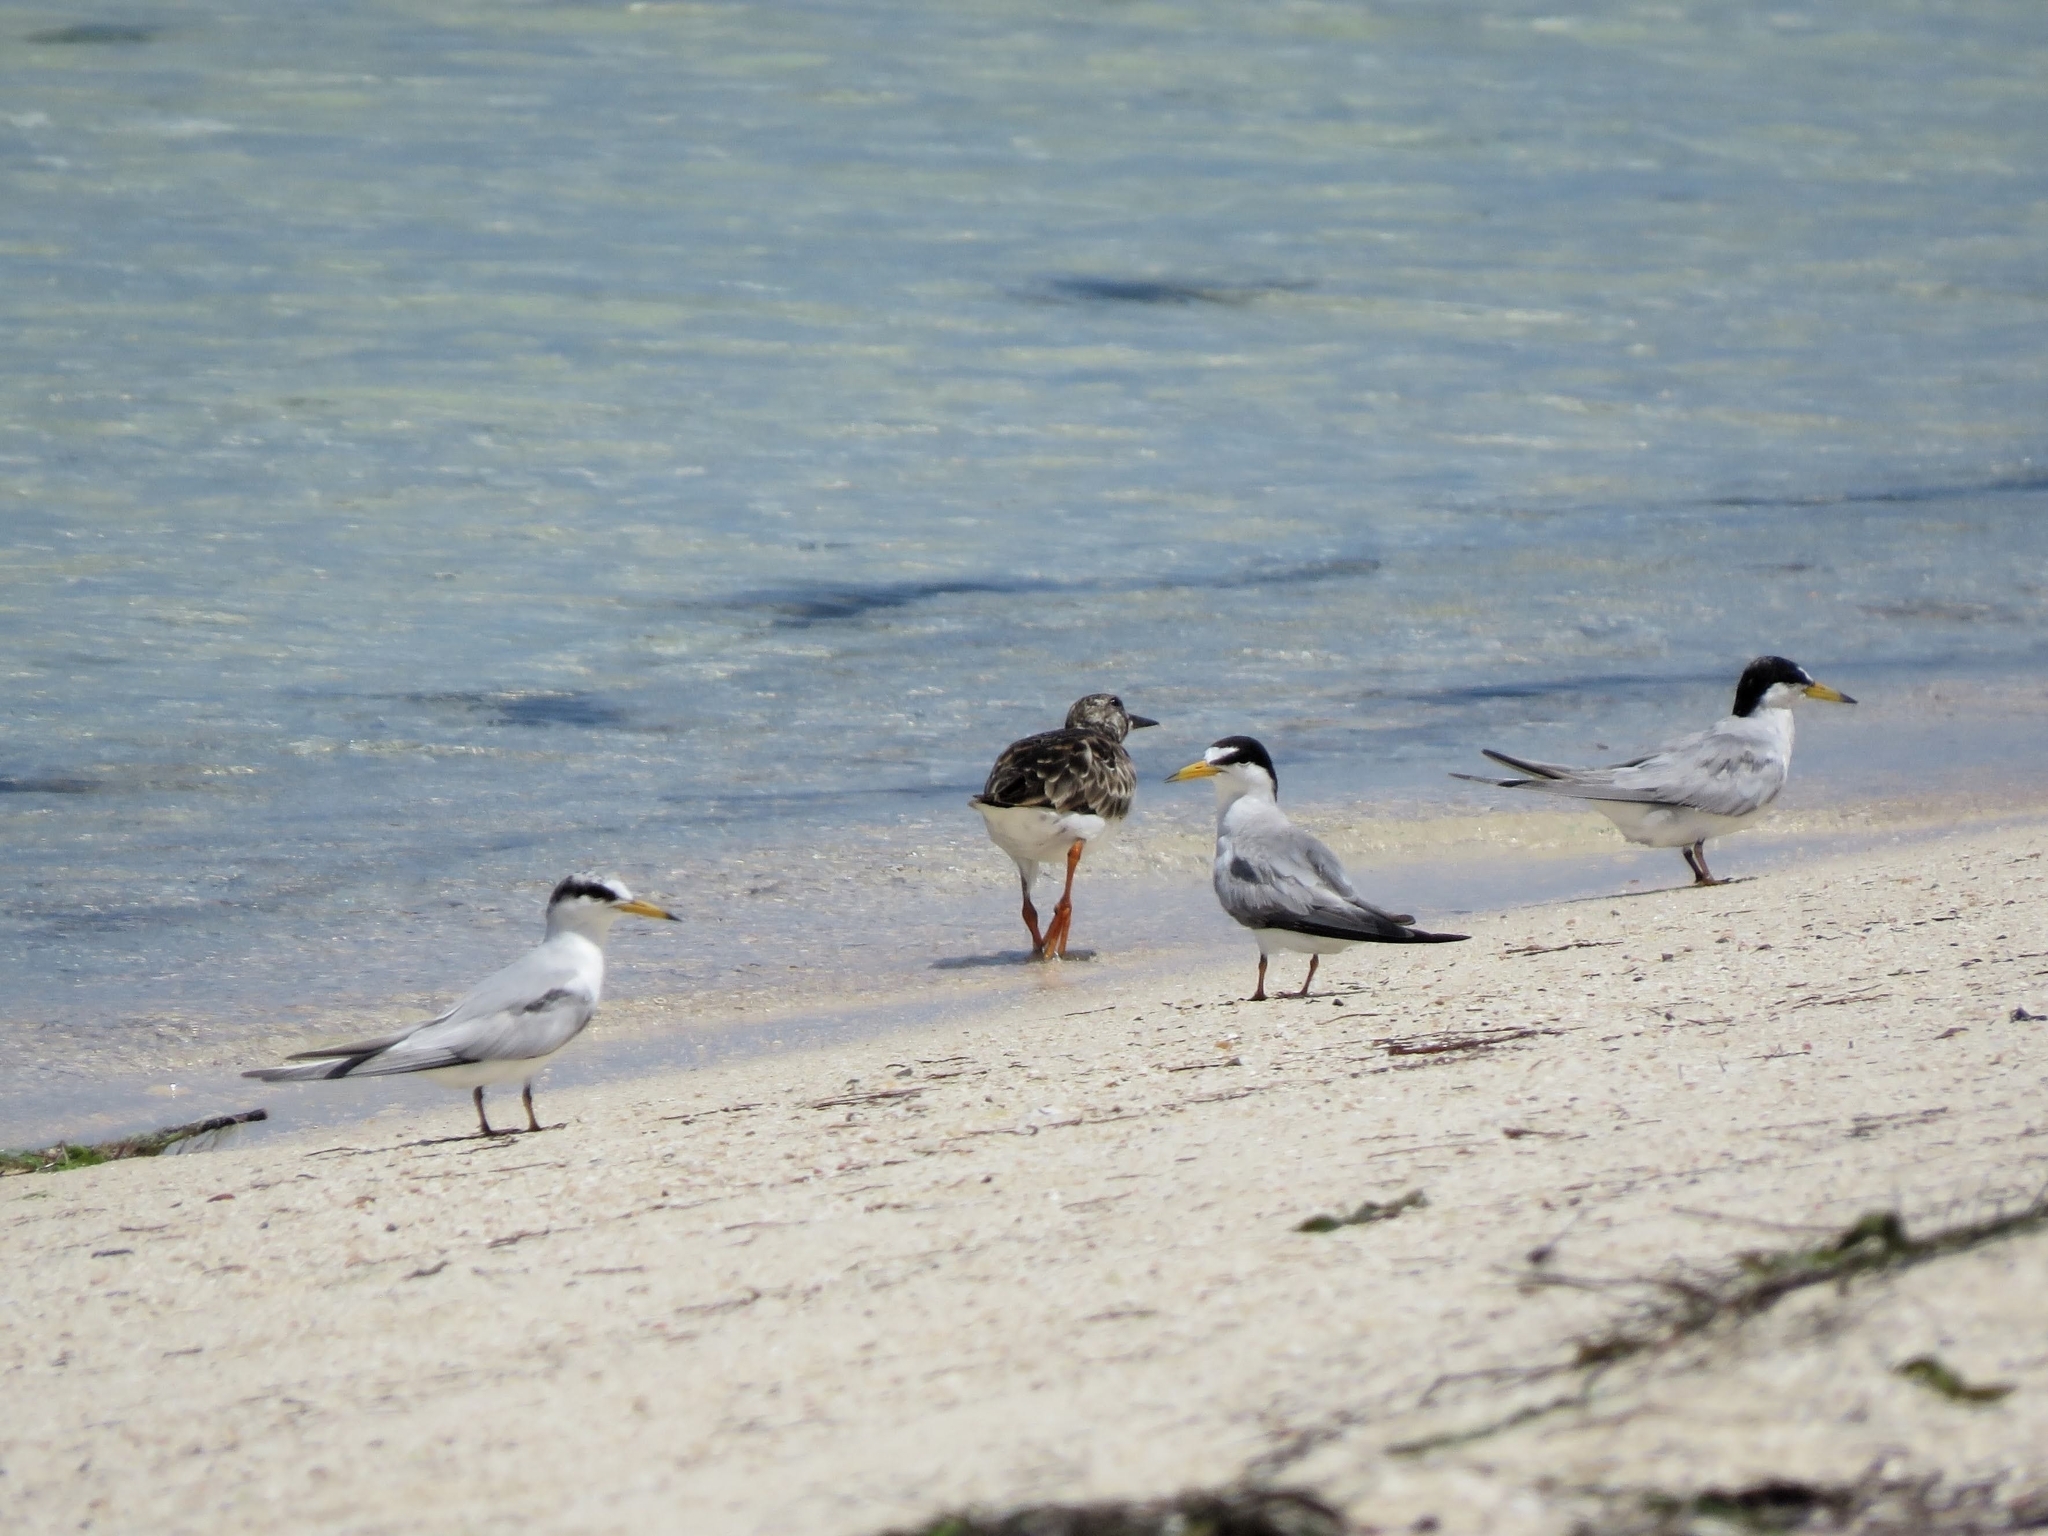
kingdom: Animalia
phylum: Chordata
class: Aves
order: Charadriiformes
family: Laridae
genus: Sternula
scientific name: Sternula antillarum
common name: Least tern
